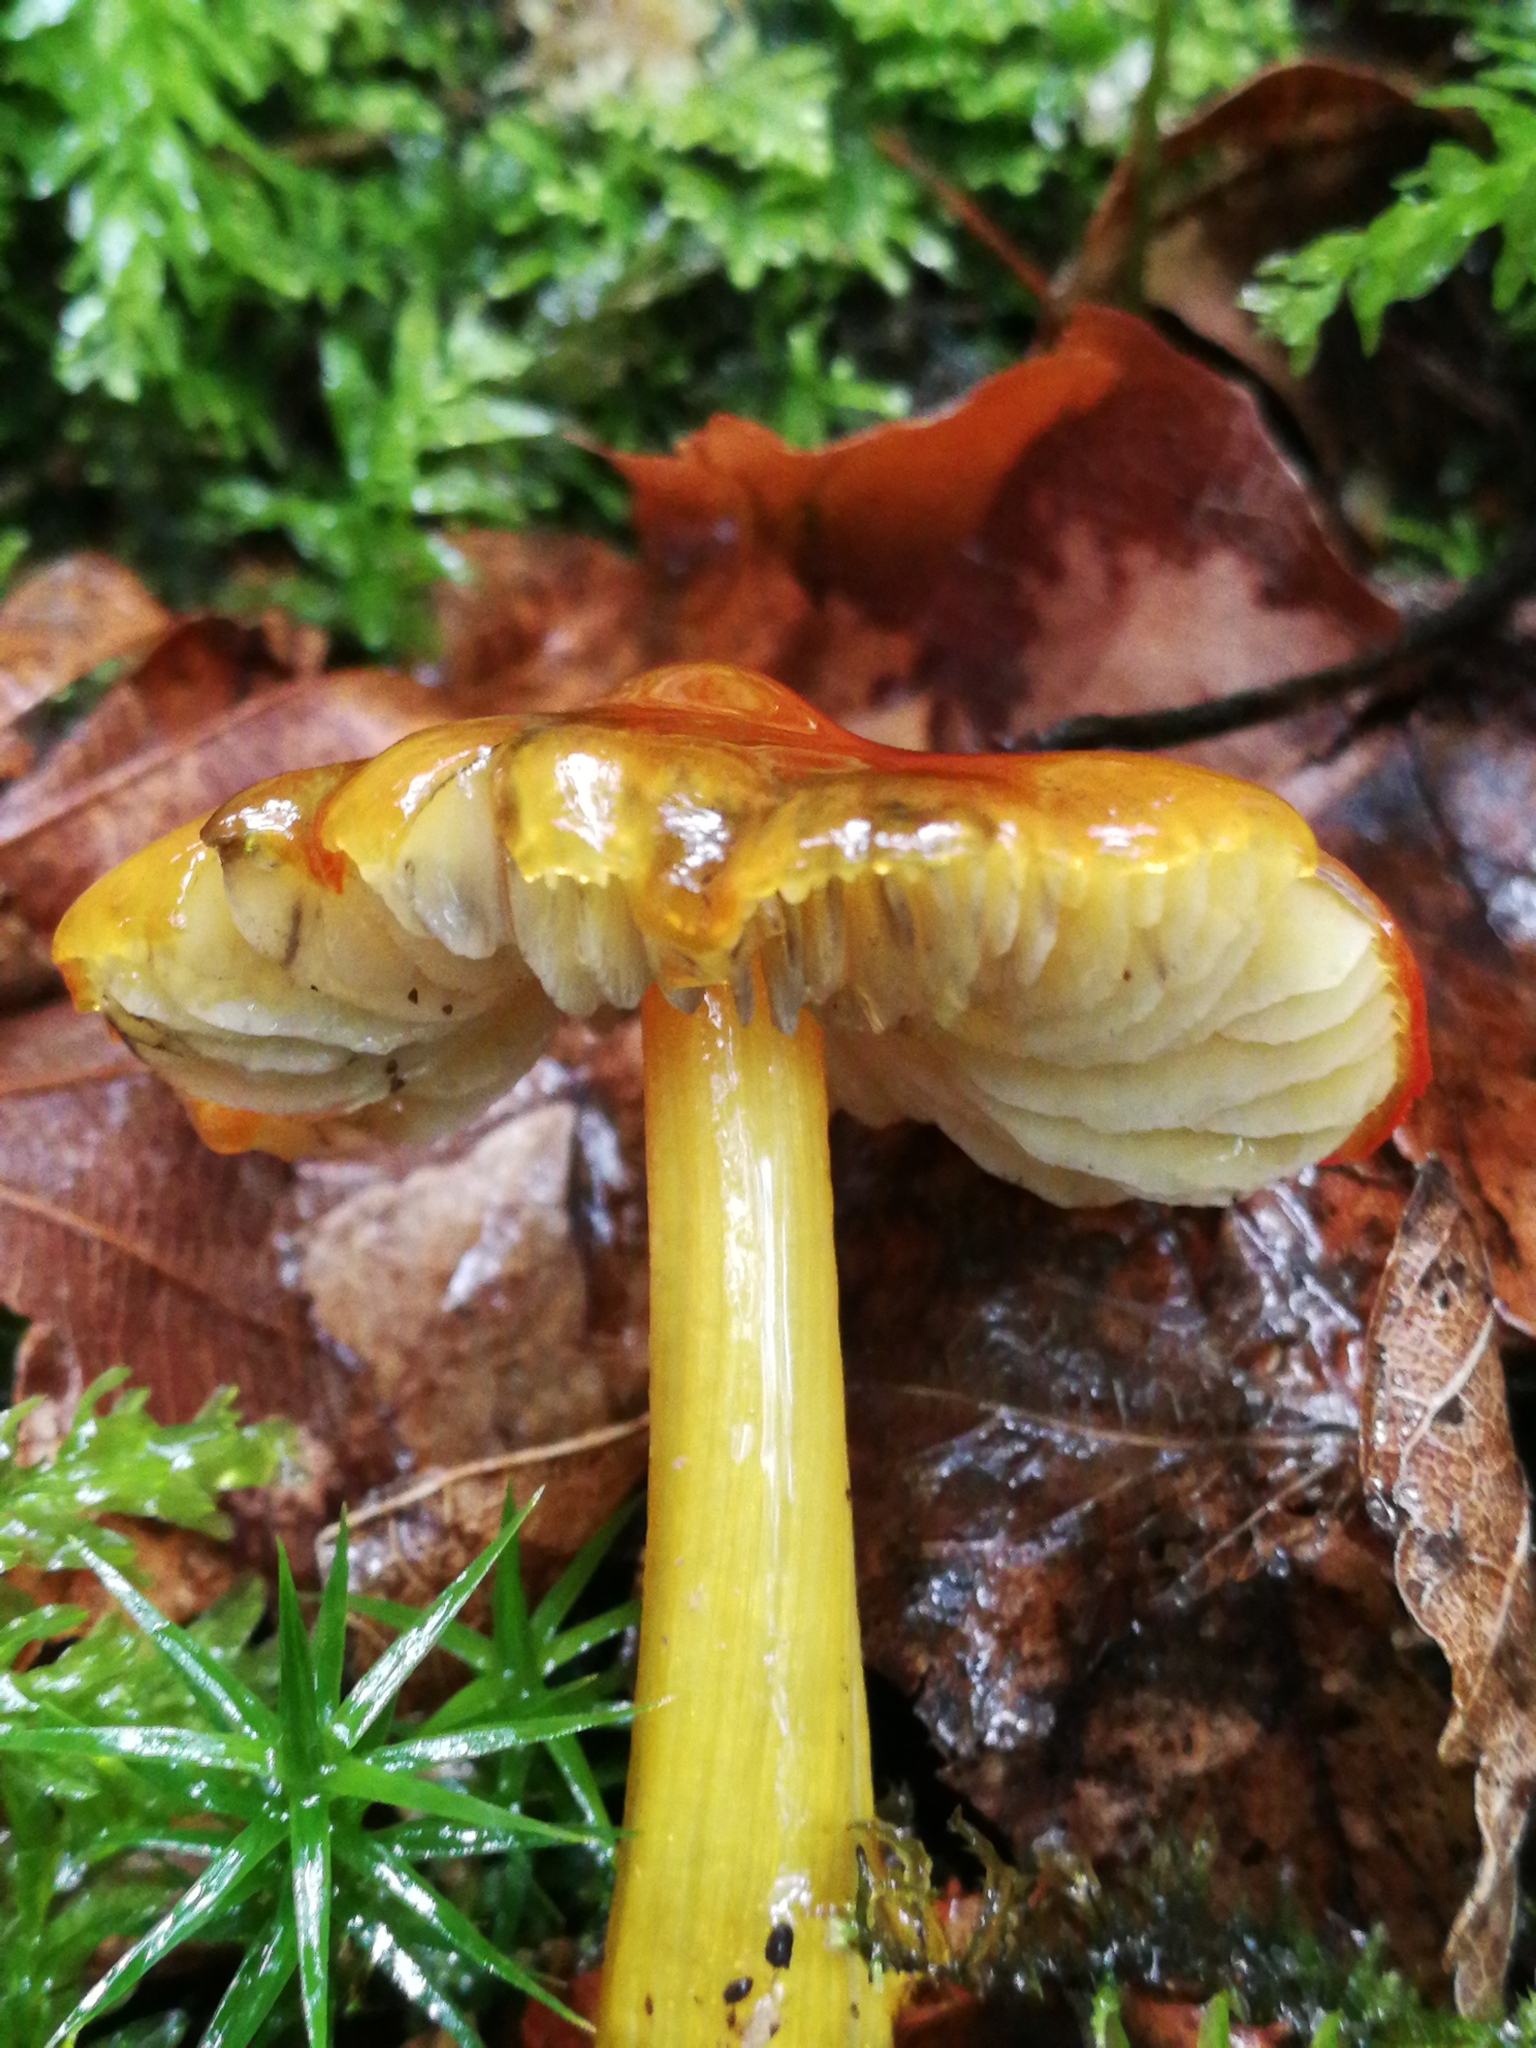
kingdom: Fungi
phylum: Basidiomycota
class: Agaricomycetes
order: Agaricales
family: Hygrophoraceae
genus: Hygrocybe
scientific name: Hygrocybe conica
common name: Blackening wax-cap
